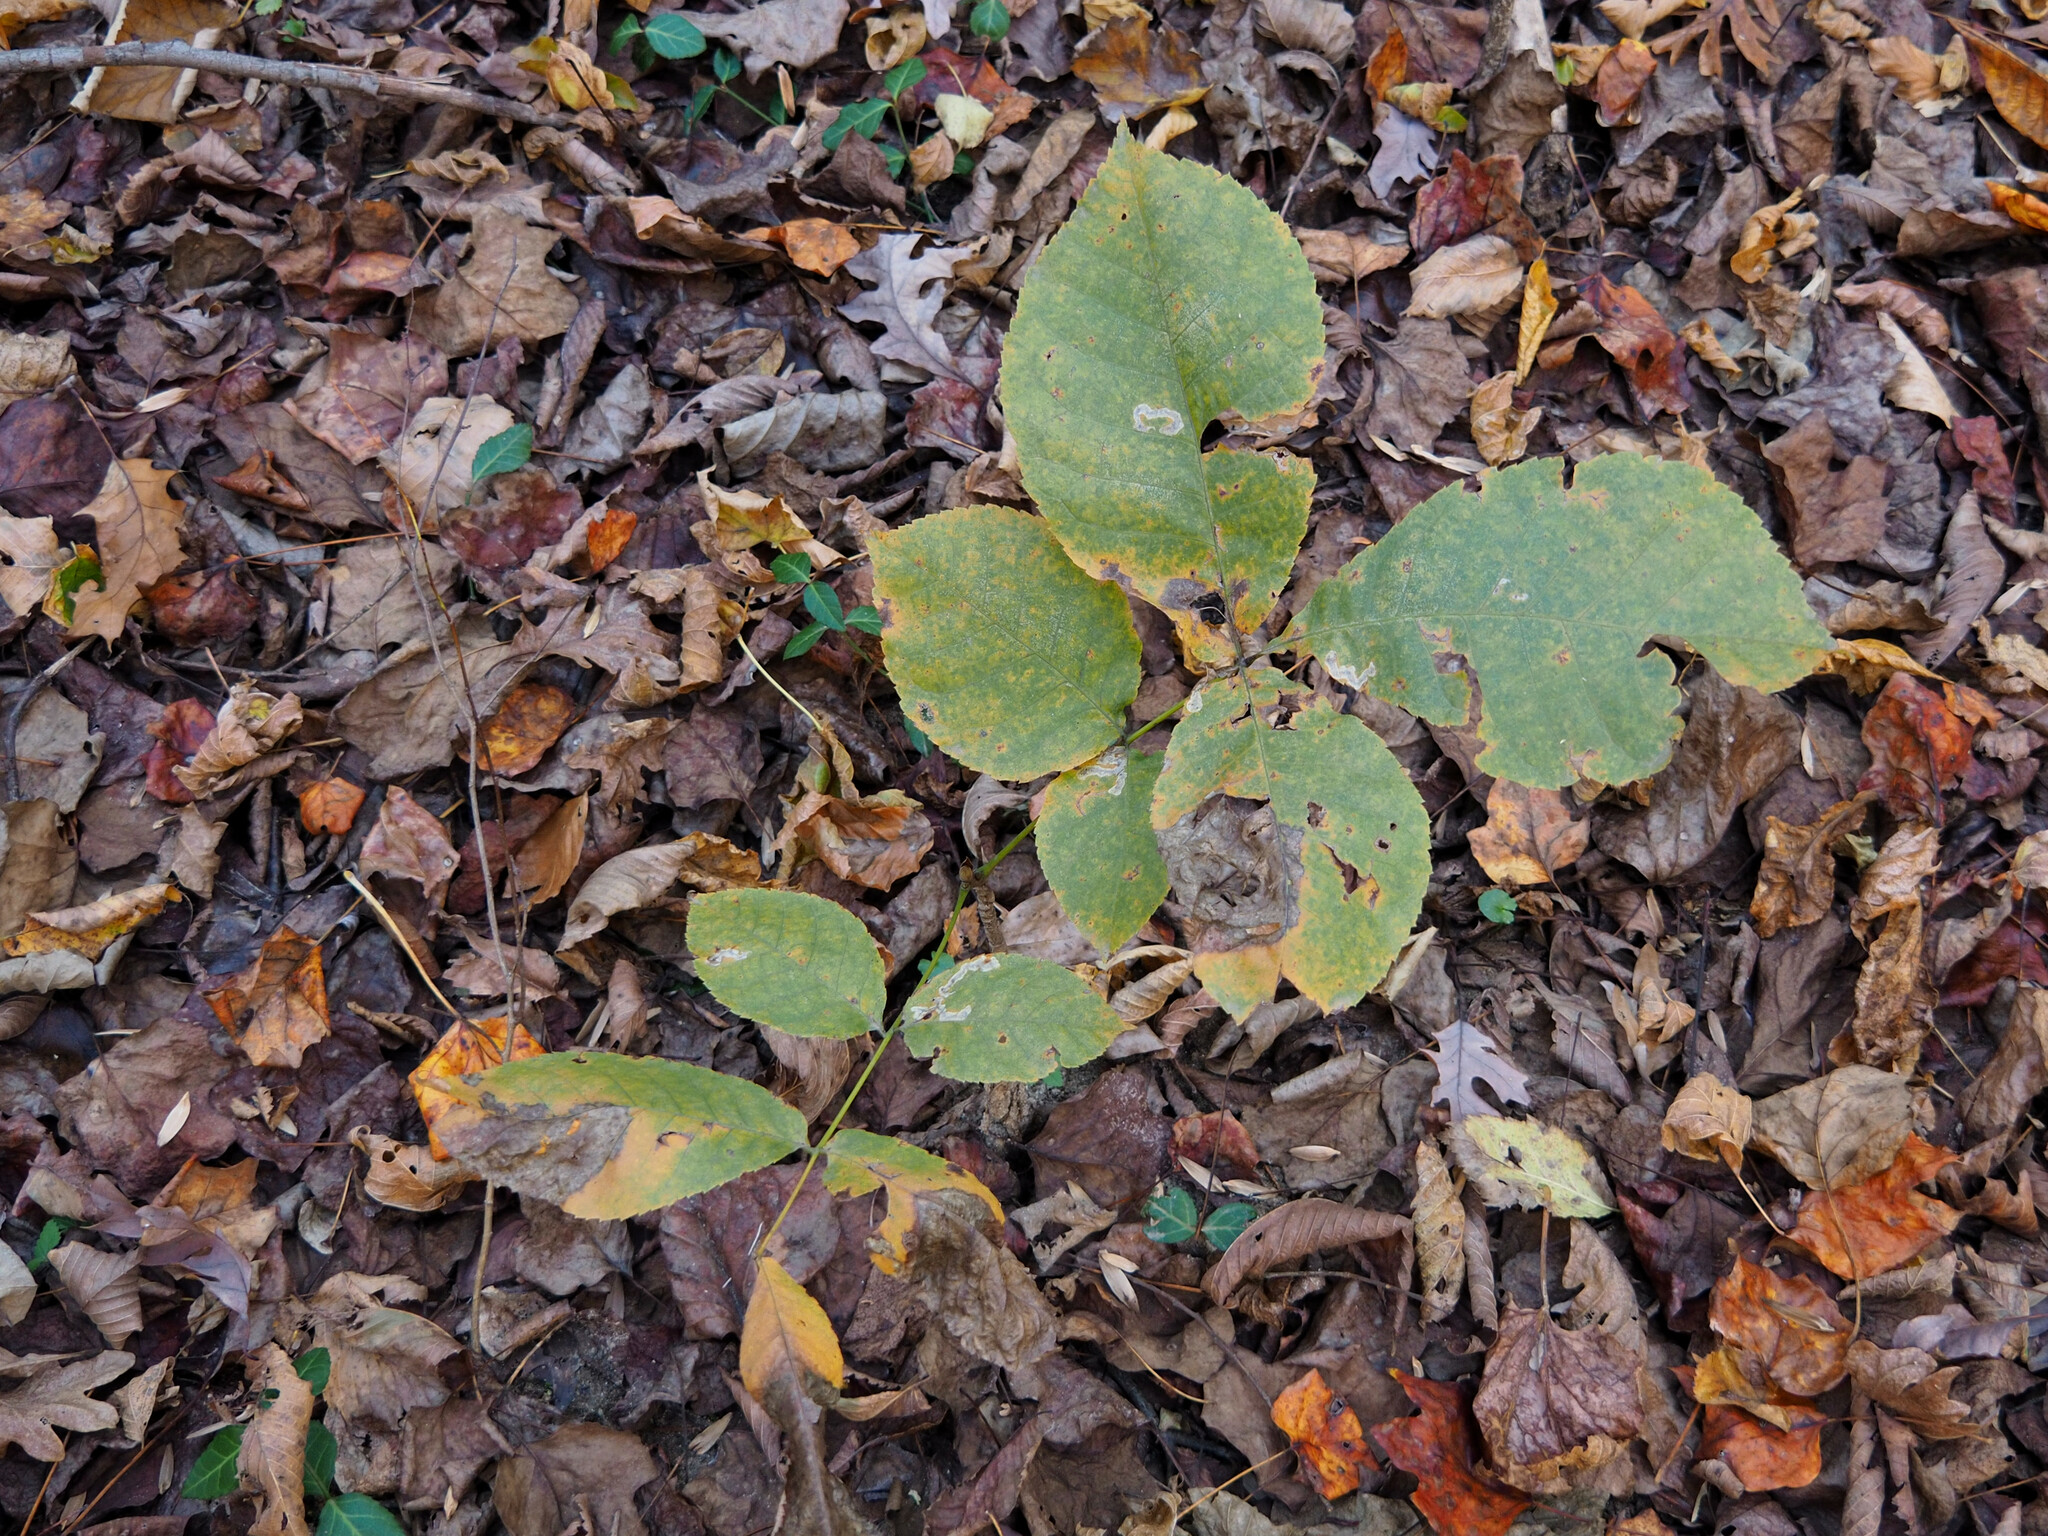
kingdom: Animalia
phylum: Arthropoda
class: Insecta
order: Lepidoptera
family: Gracillariidae
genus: Cameraria
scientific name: Cameraria caryaefoliella
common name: Pecan leafminer moth
